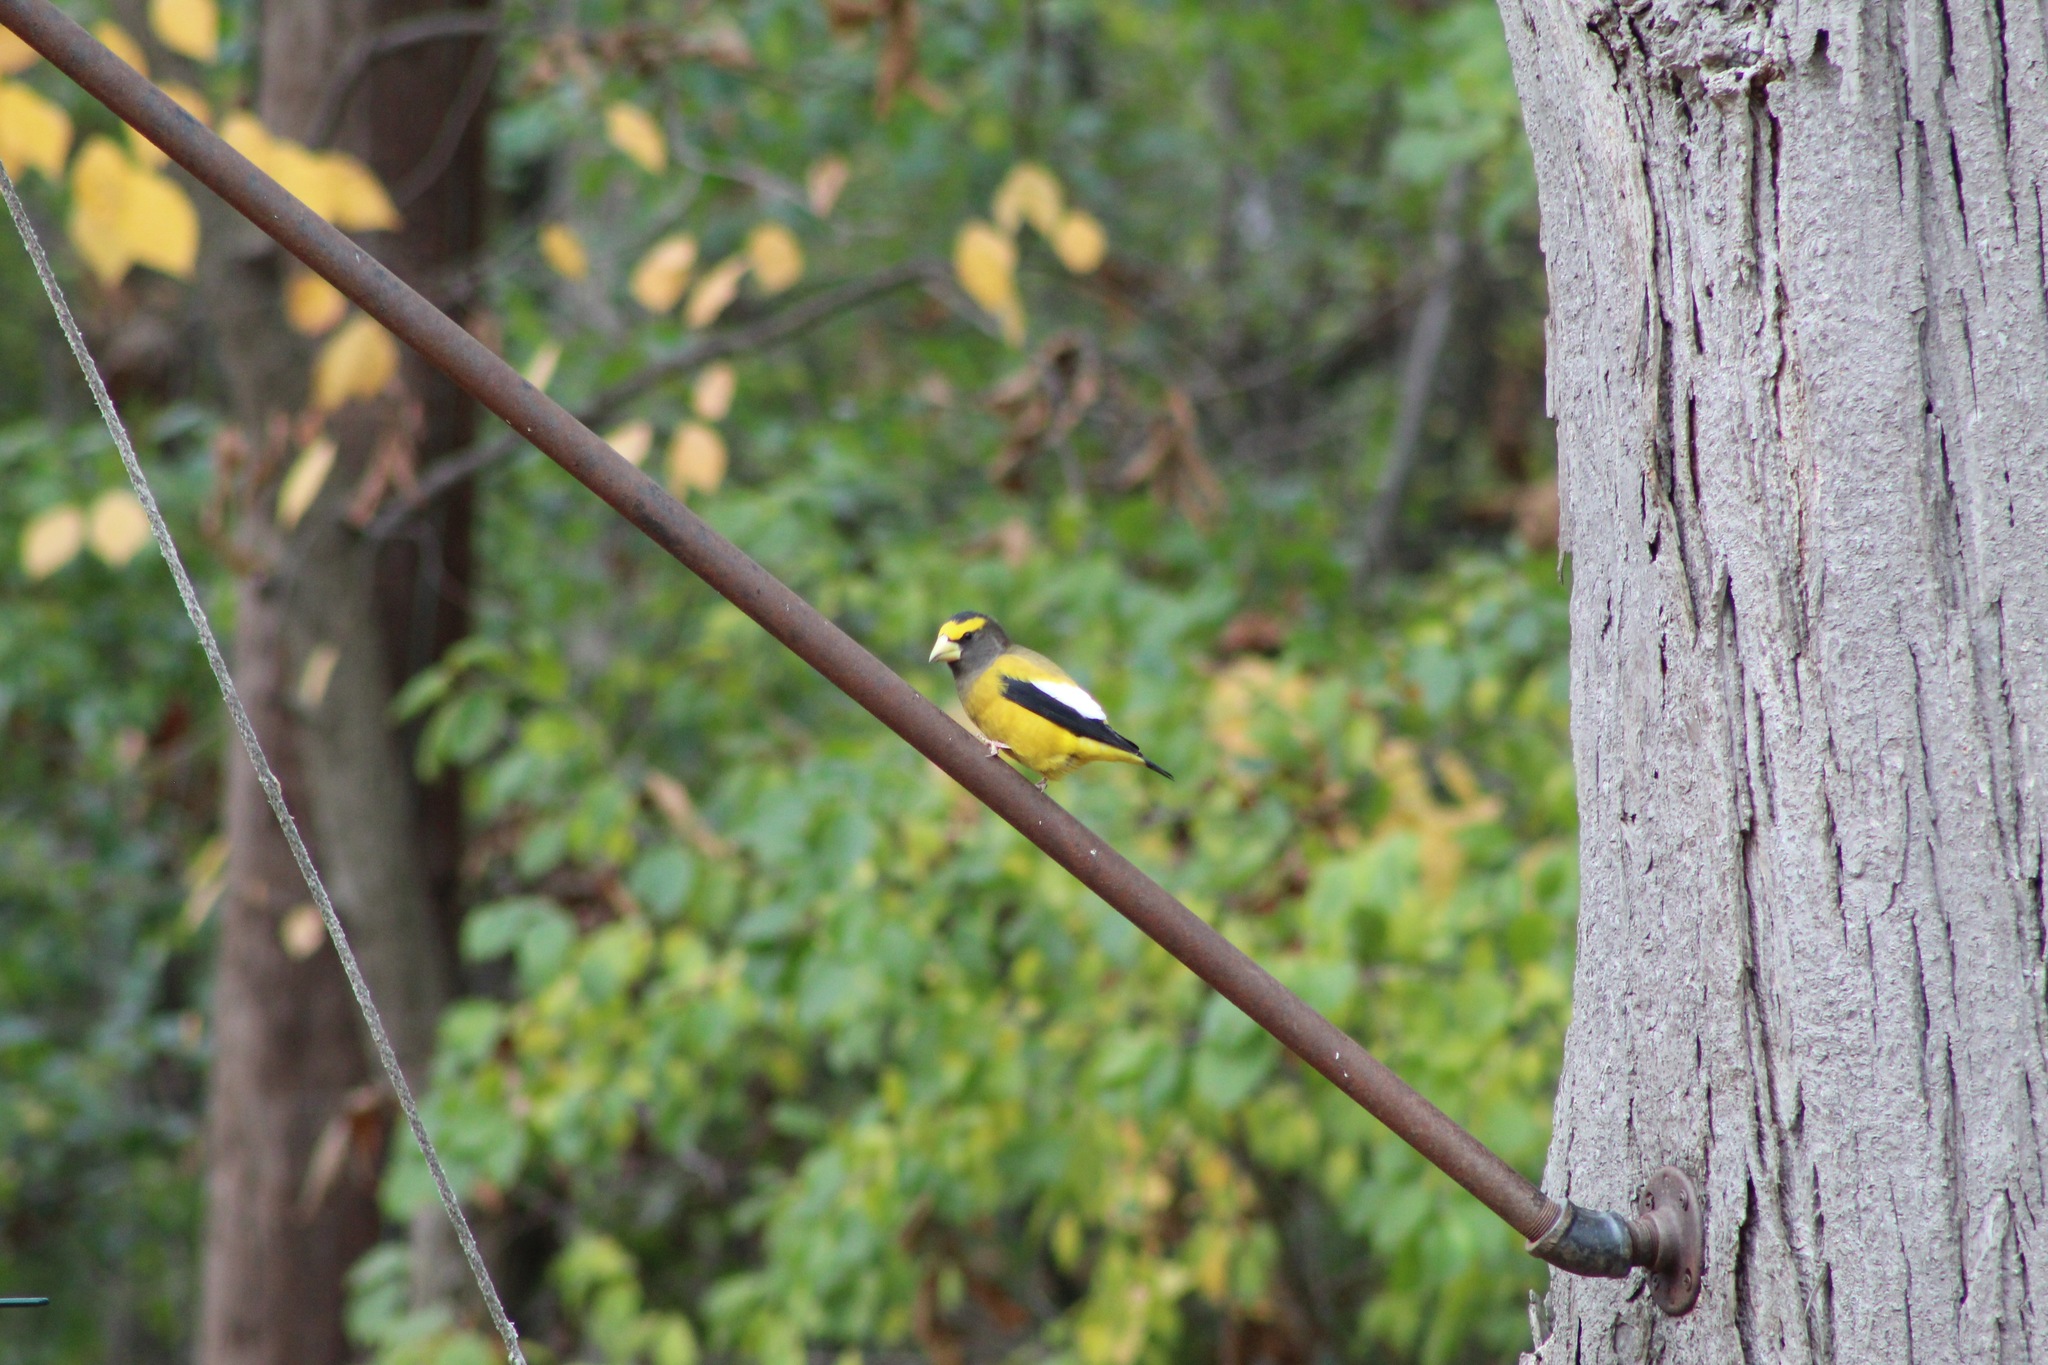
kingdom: Animalia
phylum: Chordata
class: Aves
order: Passeriformes
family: Fringillidae
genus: Hesperiphona
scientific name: Hesperiphona vespertina
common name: Evening grosbeak
